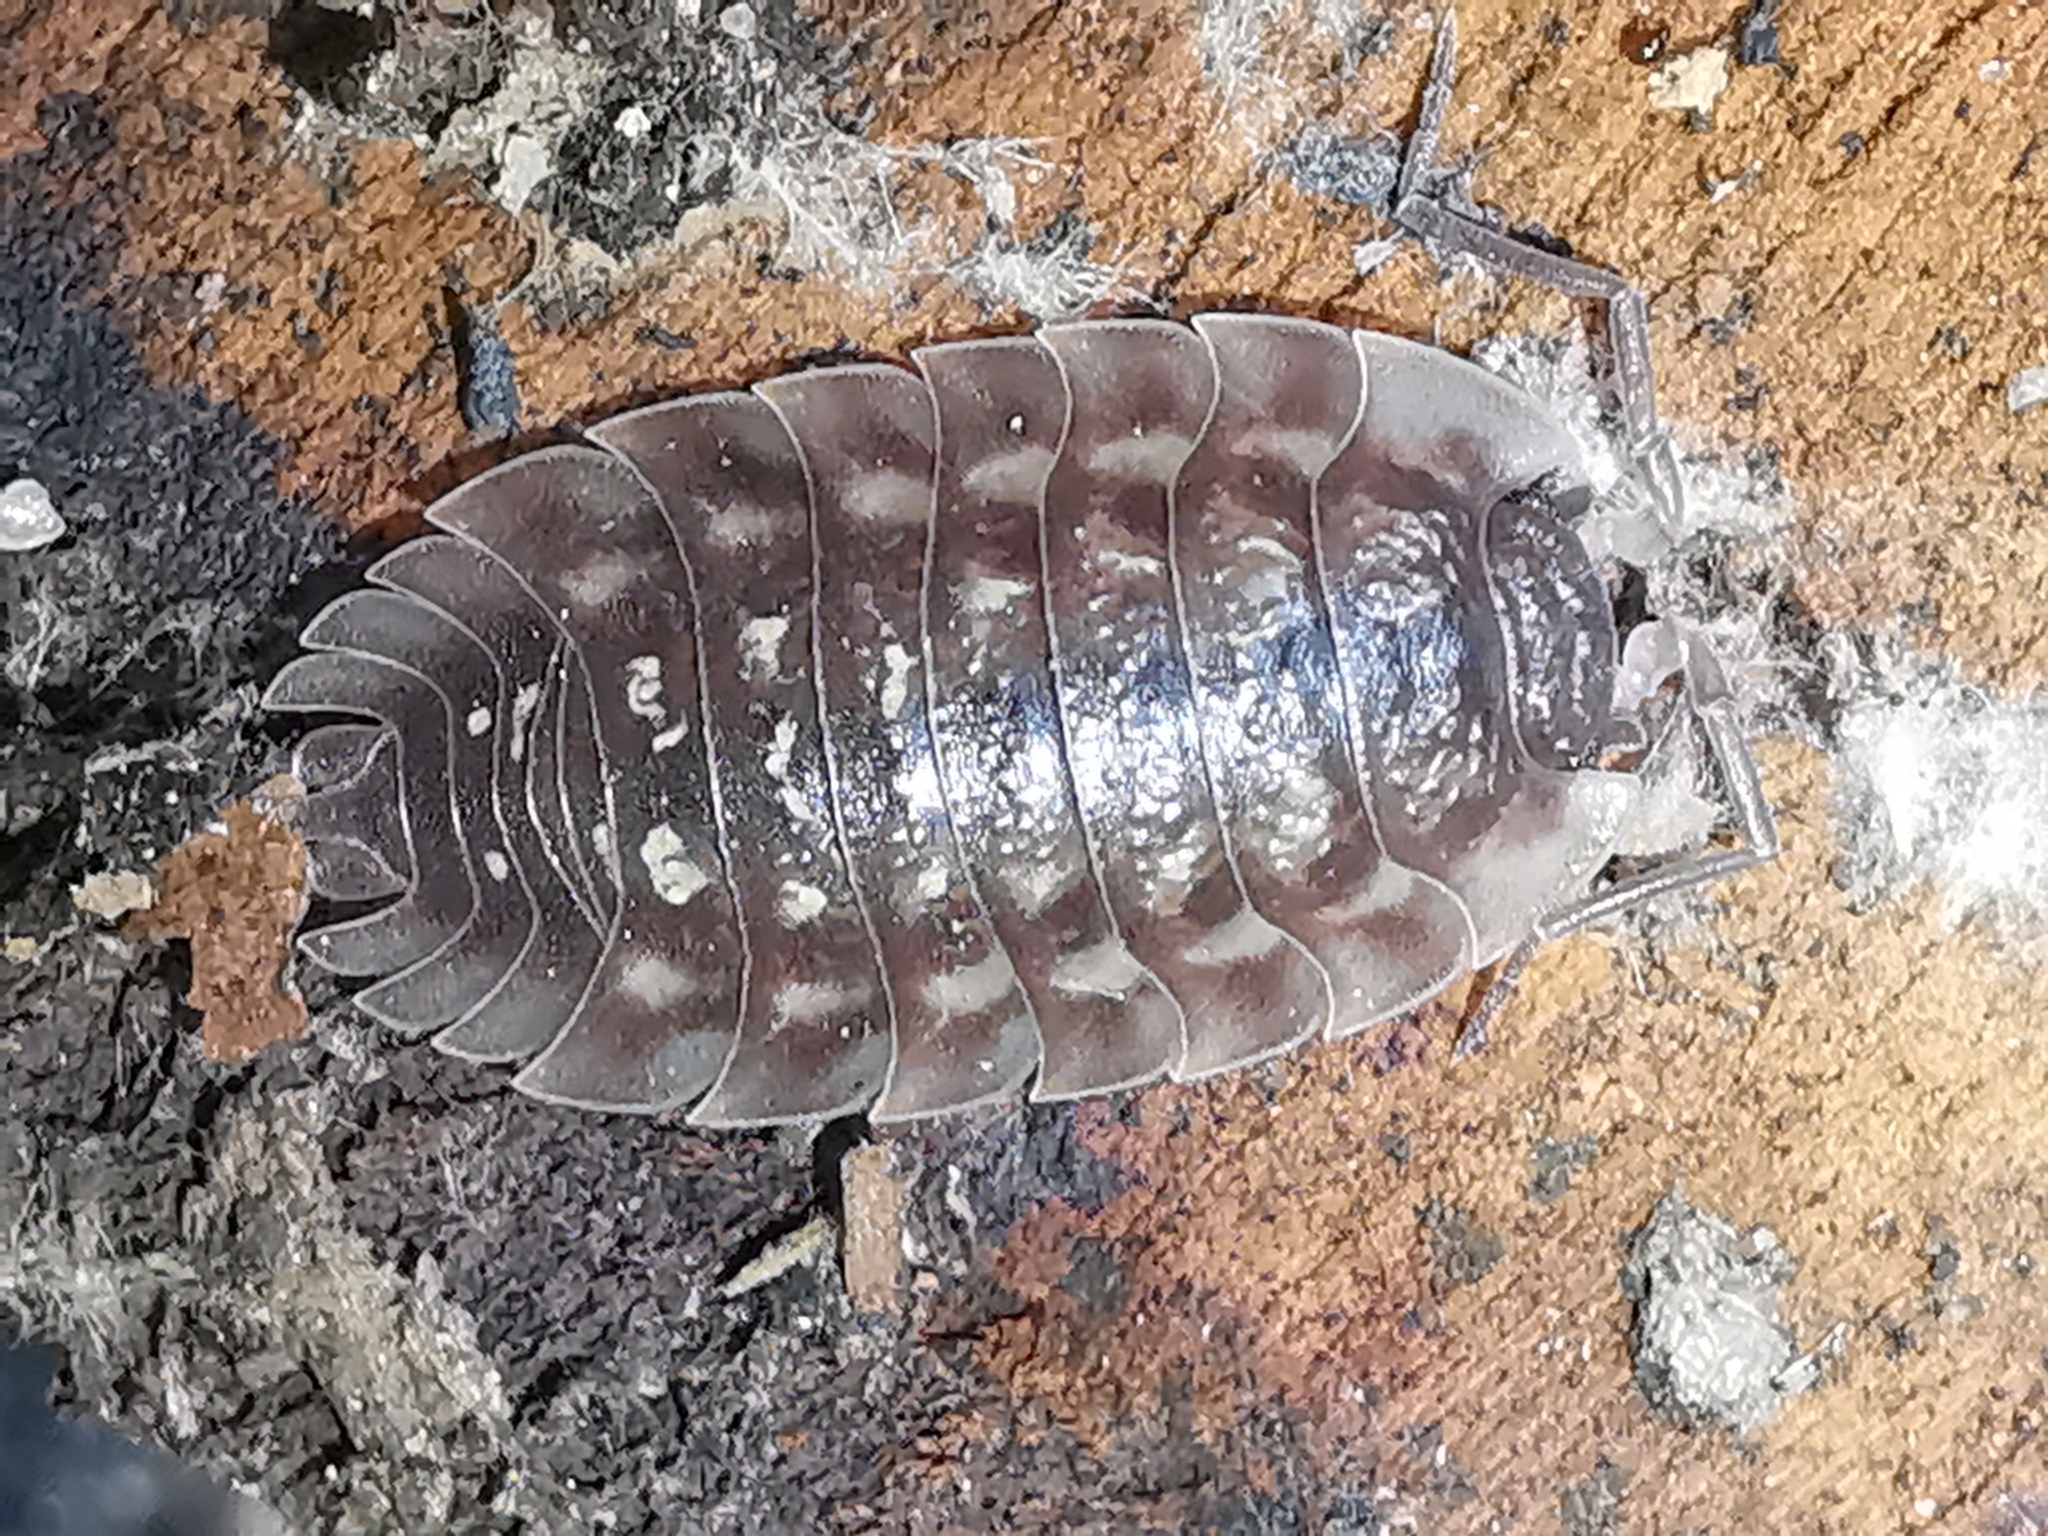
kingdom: Animalia
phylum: Arthropoda
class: Malacostraca
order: Isopoda
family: Oniscidae
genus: Oniscus
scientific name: Oniscus asellus
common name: Common shiny woodlouse
